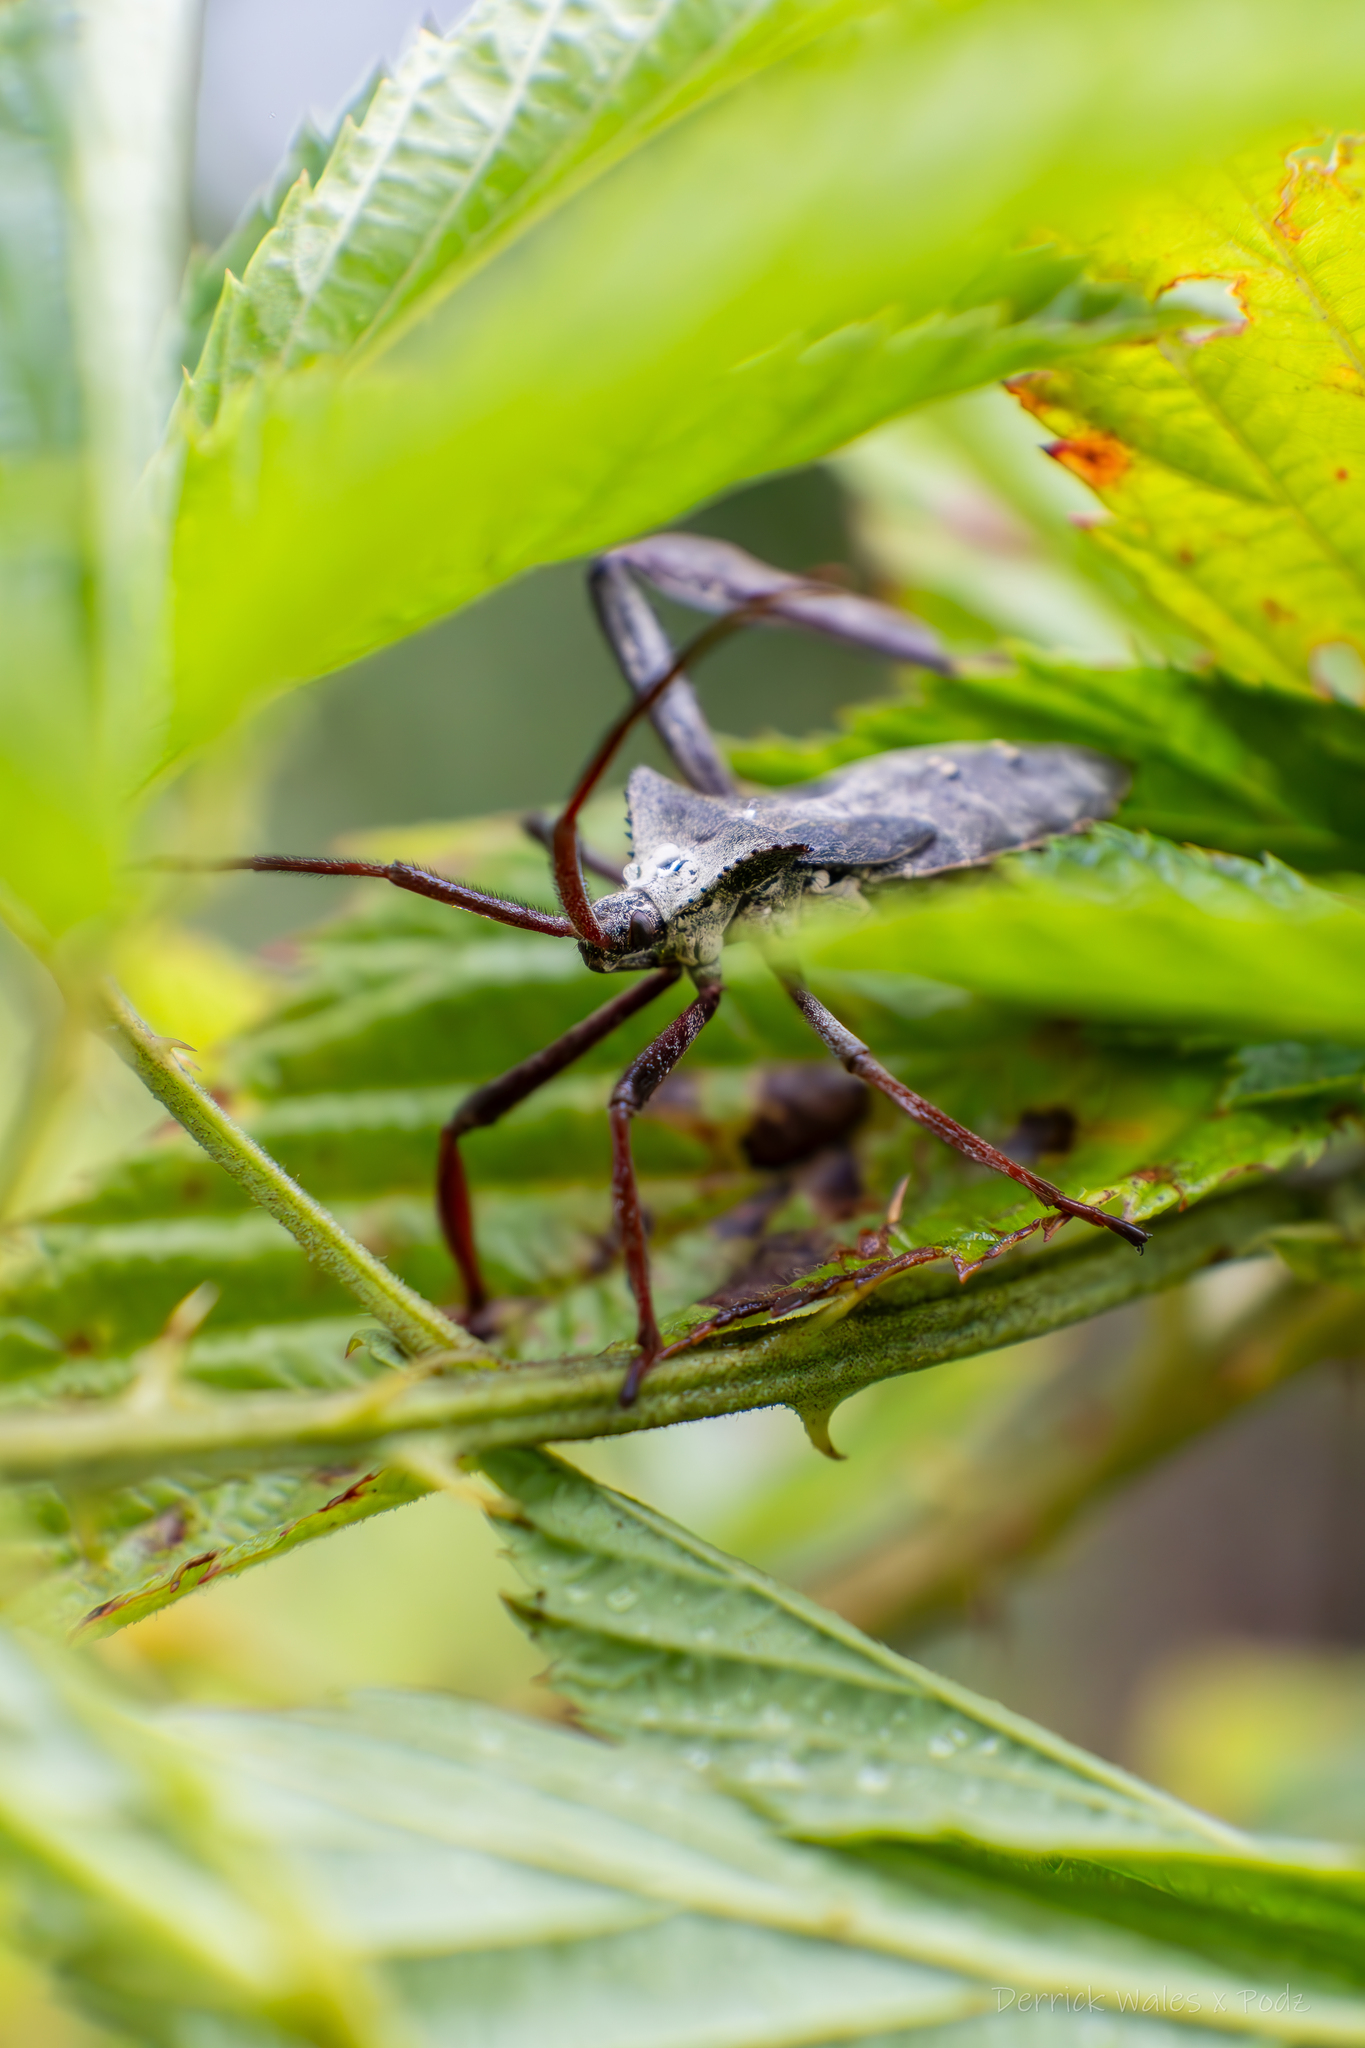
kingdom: Animalia
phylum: Arthropoda
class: Insecta
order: Hemiptera
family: Coreidae
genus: Acanthocephala
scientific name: Acanthocephala declivis
